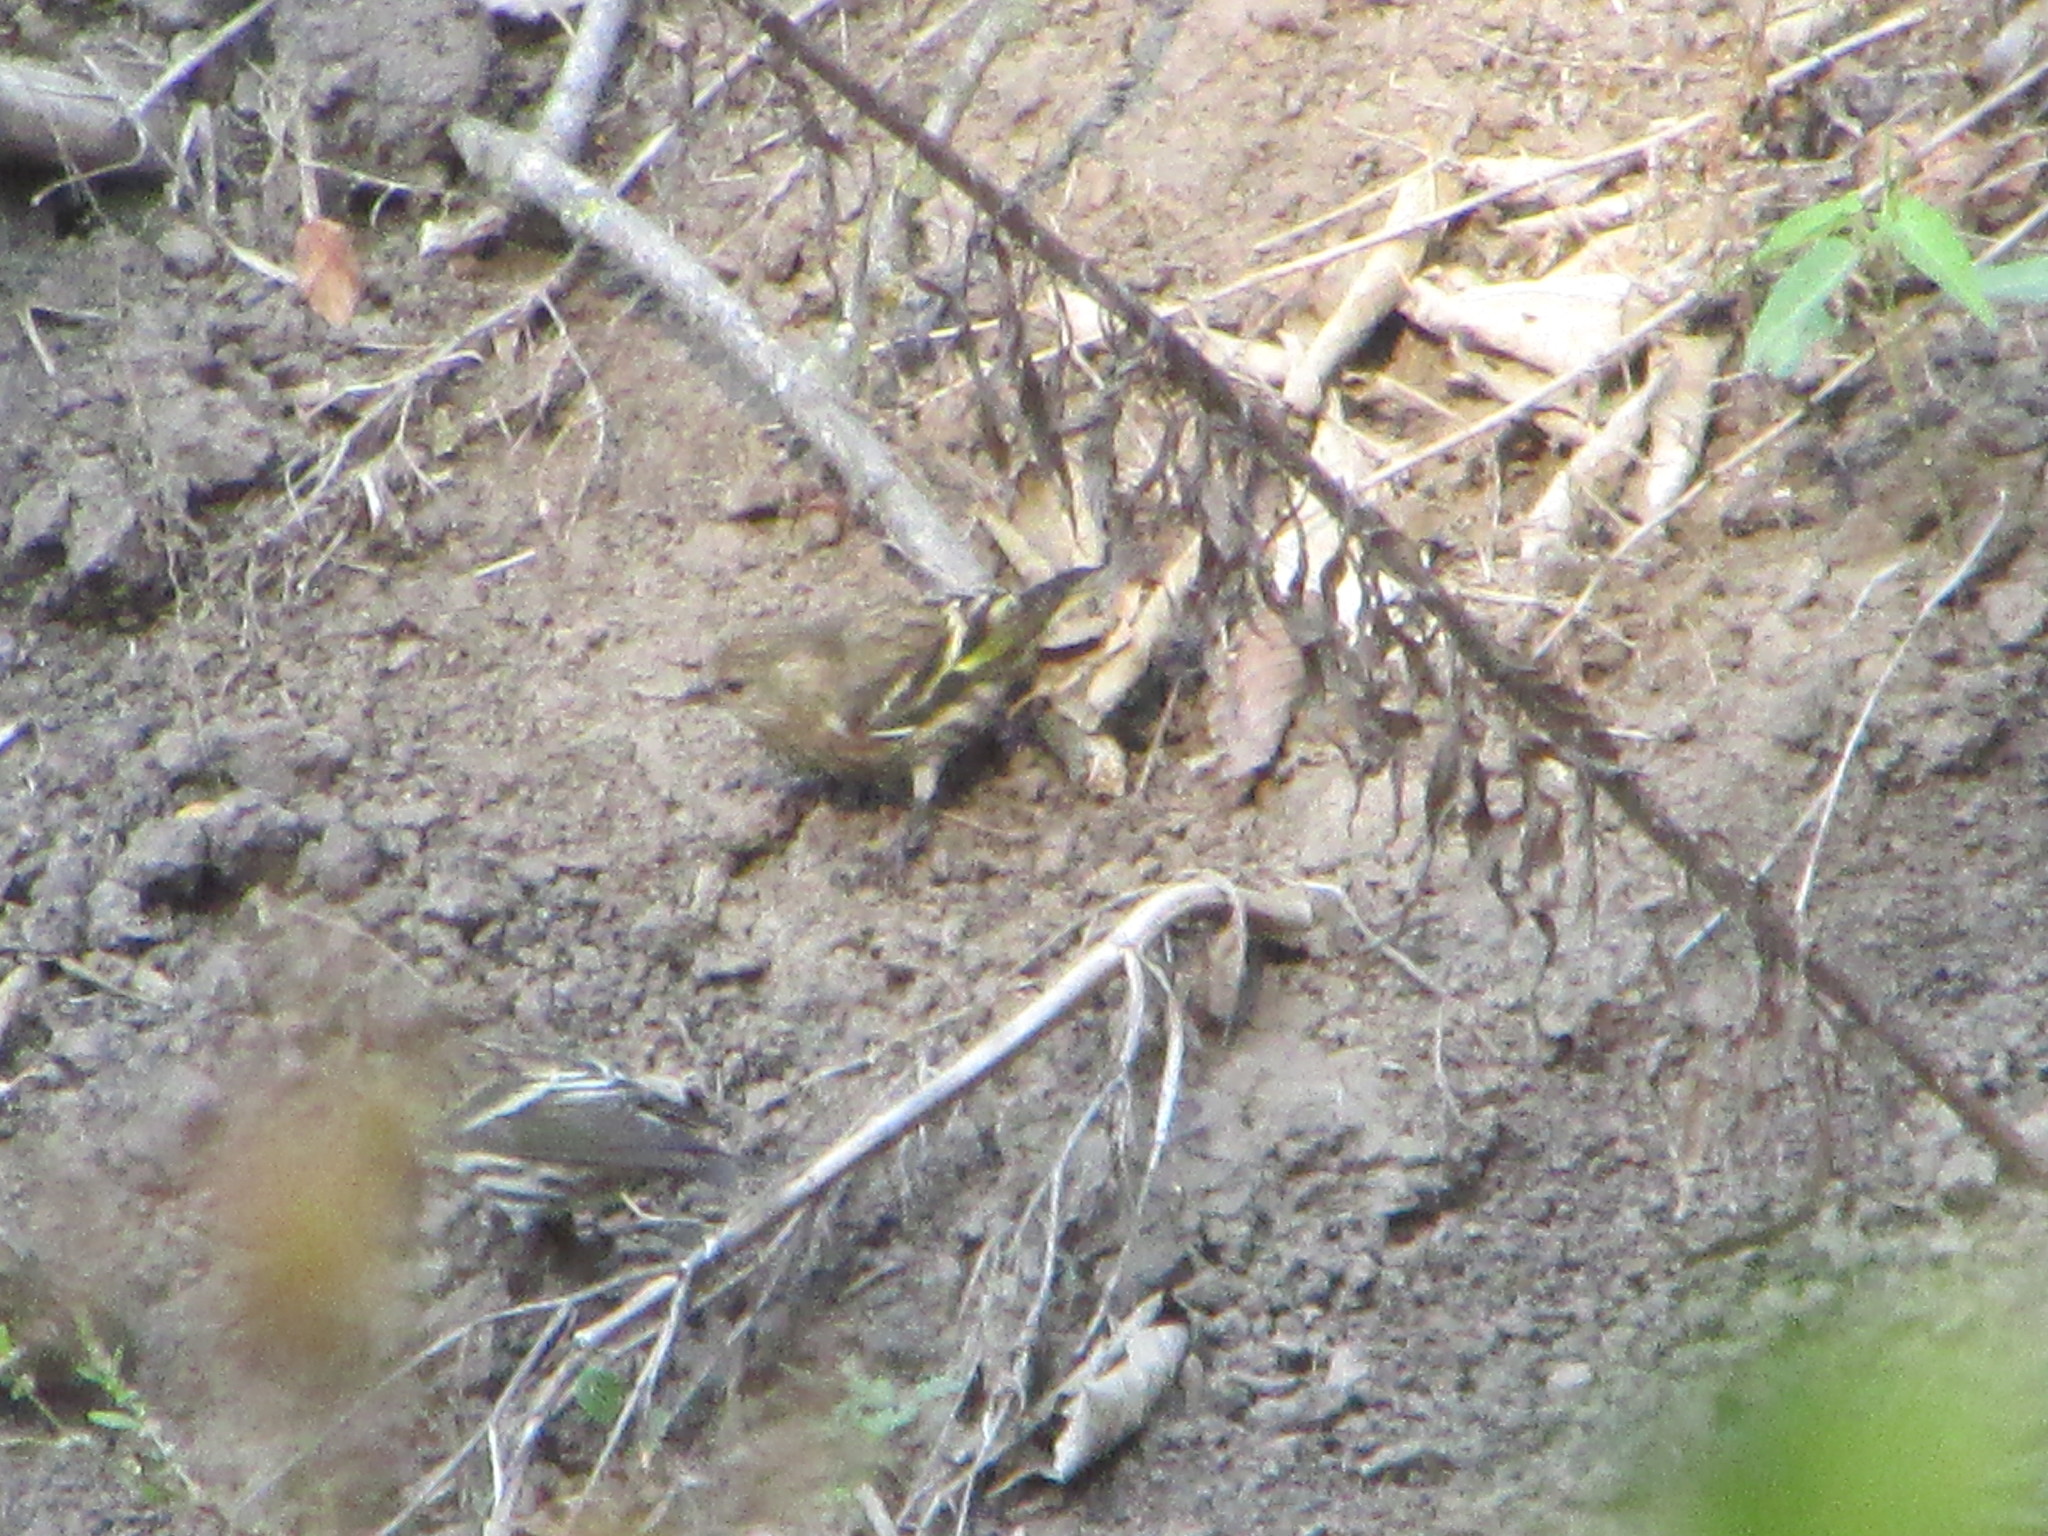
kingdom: Animalia
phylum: Chordata
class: Aves
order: Passeriformes
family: Fringillidae
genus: Spinus
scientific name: Spinus pinus
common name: Pine siskin
